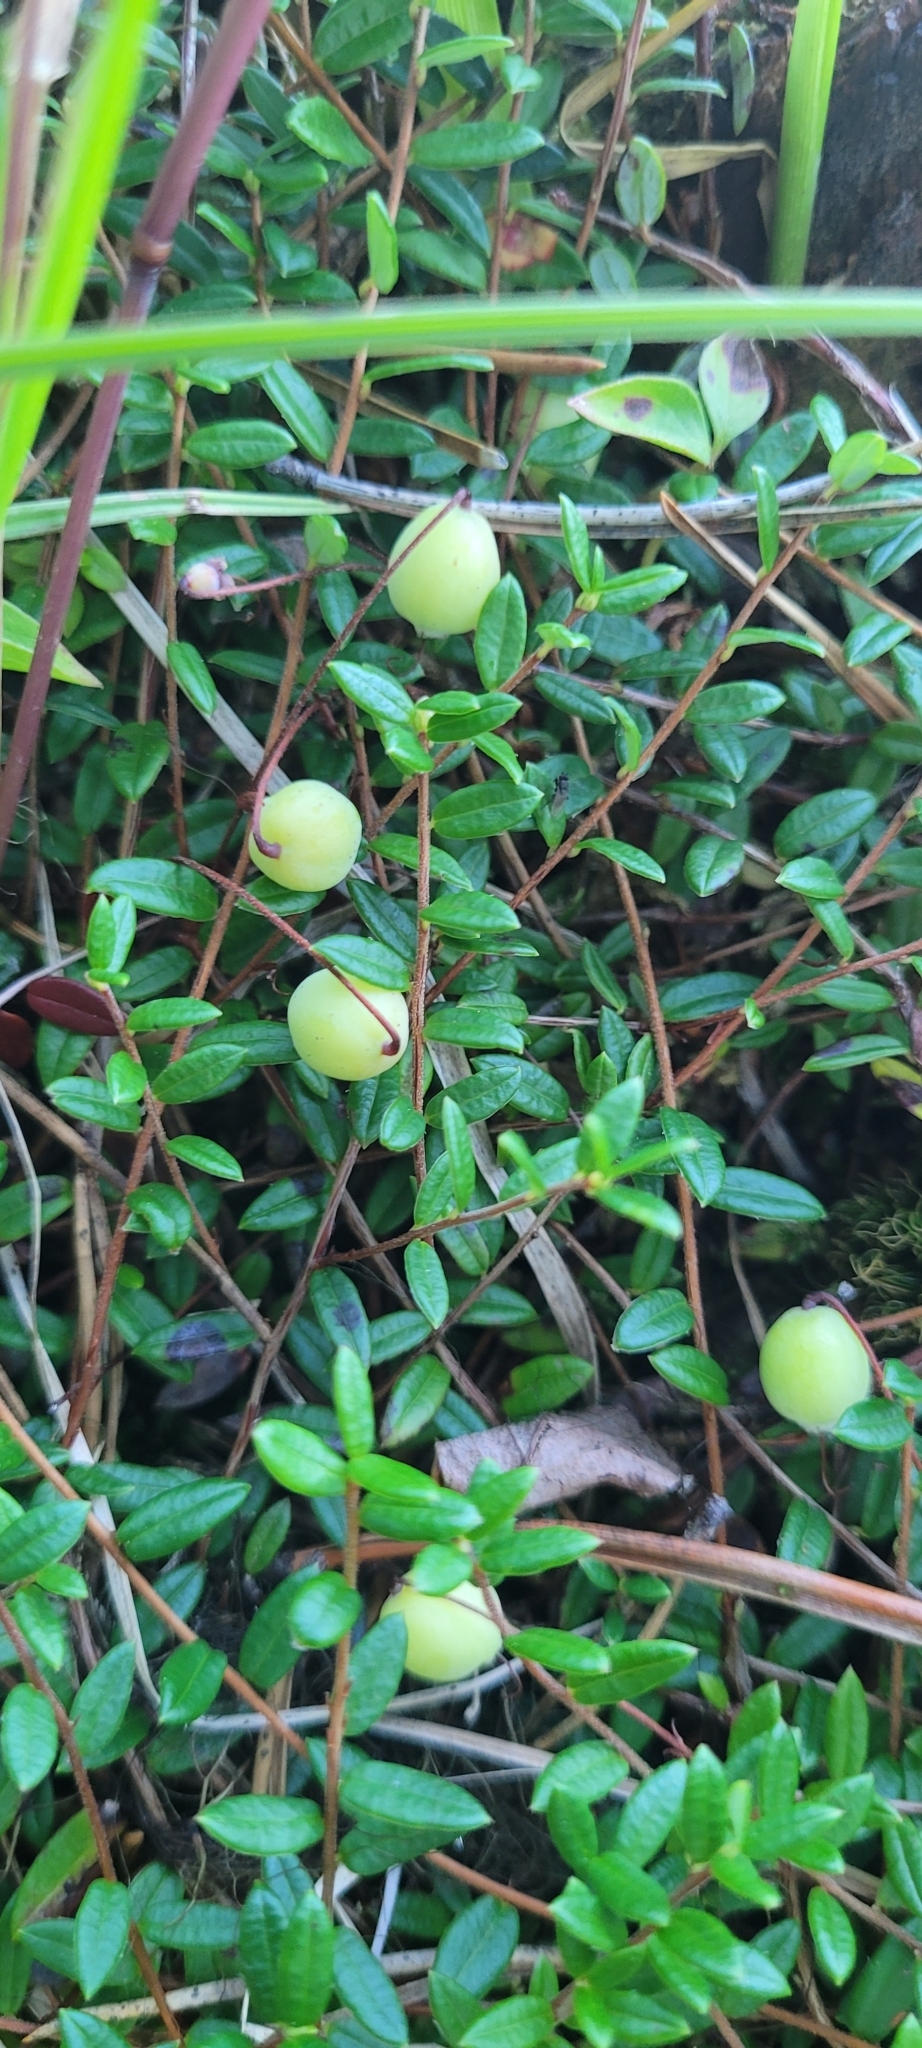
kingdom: Plantae
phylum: Tracheophyta
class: Magnoliopsida
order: Ericales
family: Ericaceae
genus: Vaccinium
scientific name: Vaccinium oxycoccos
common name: Cranberry
